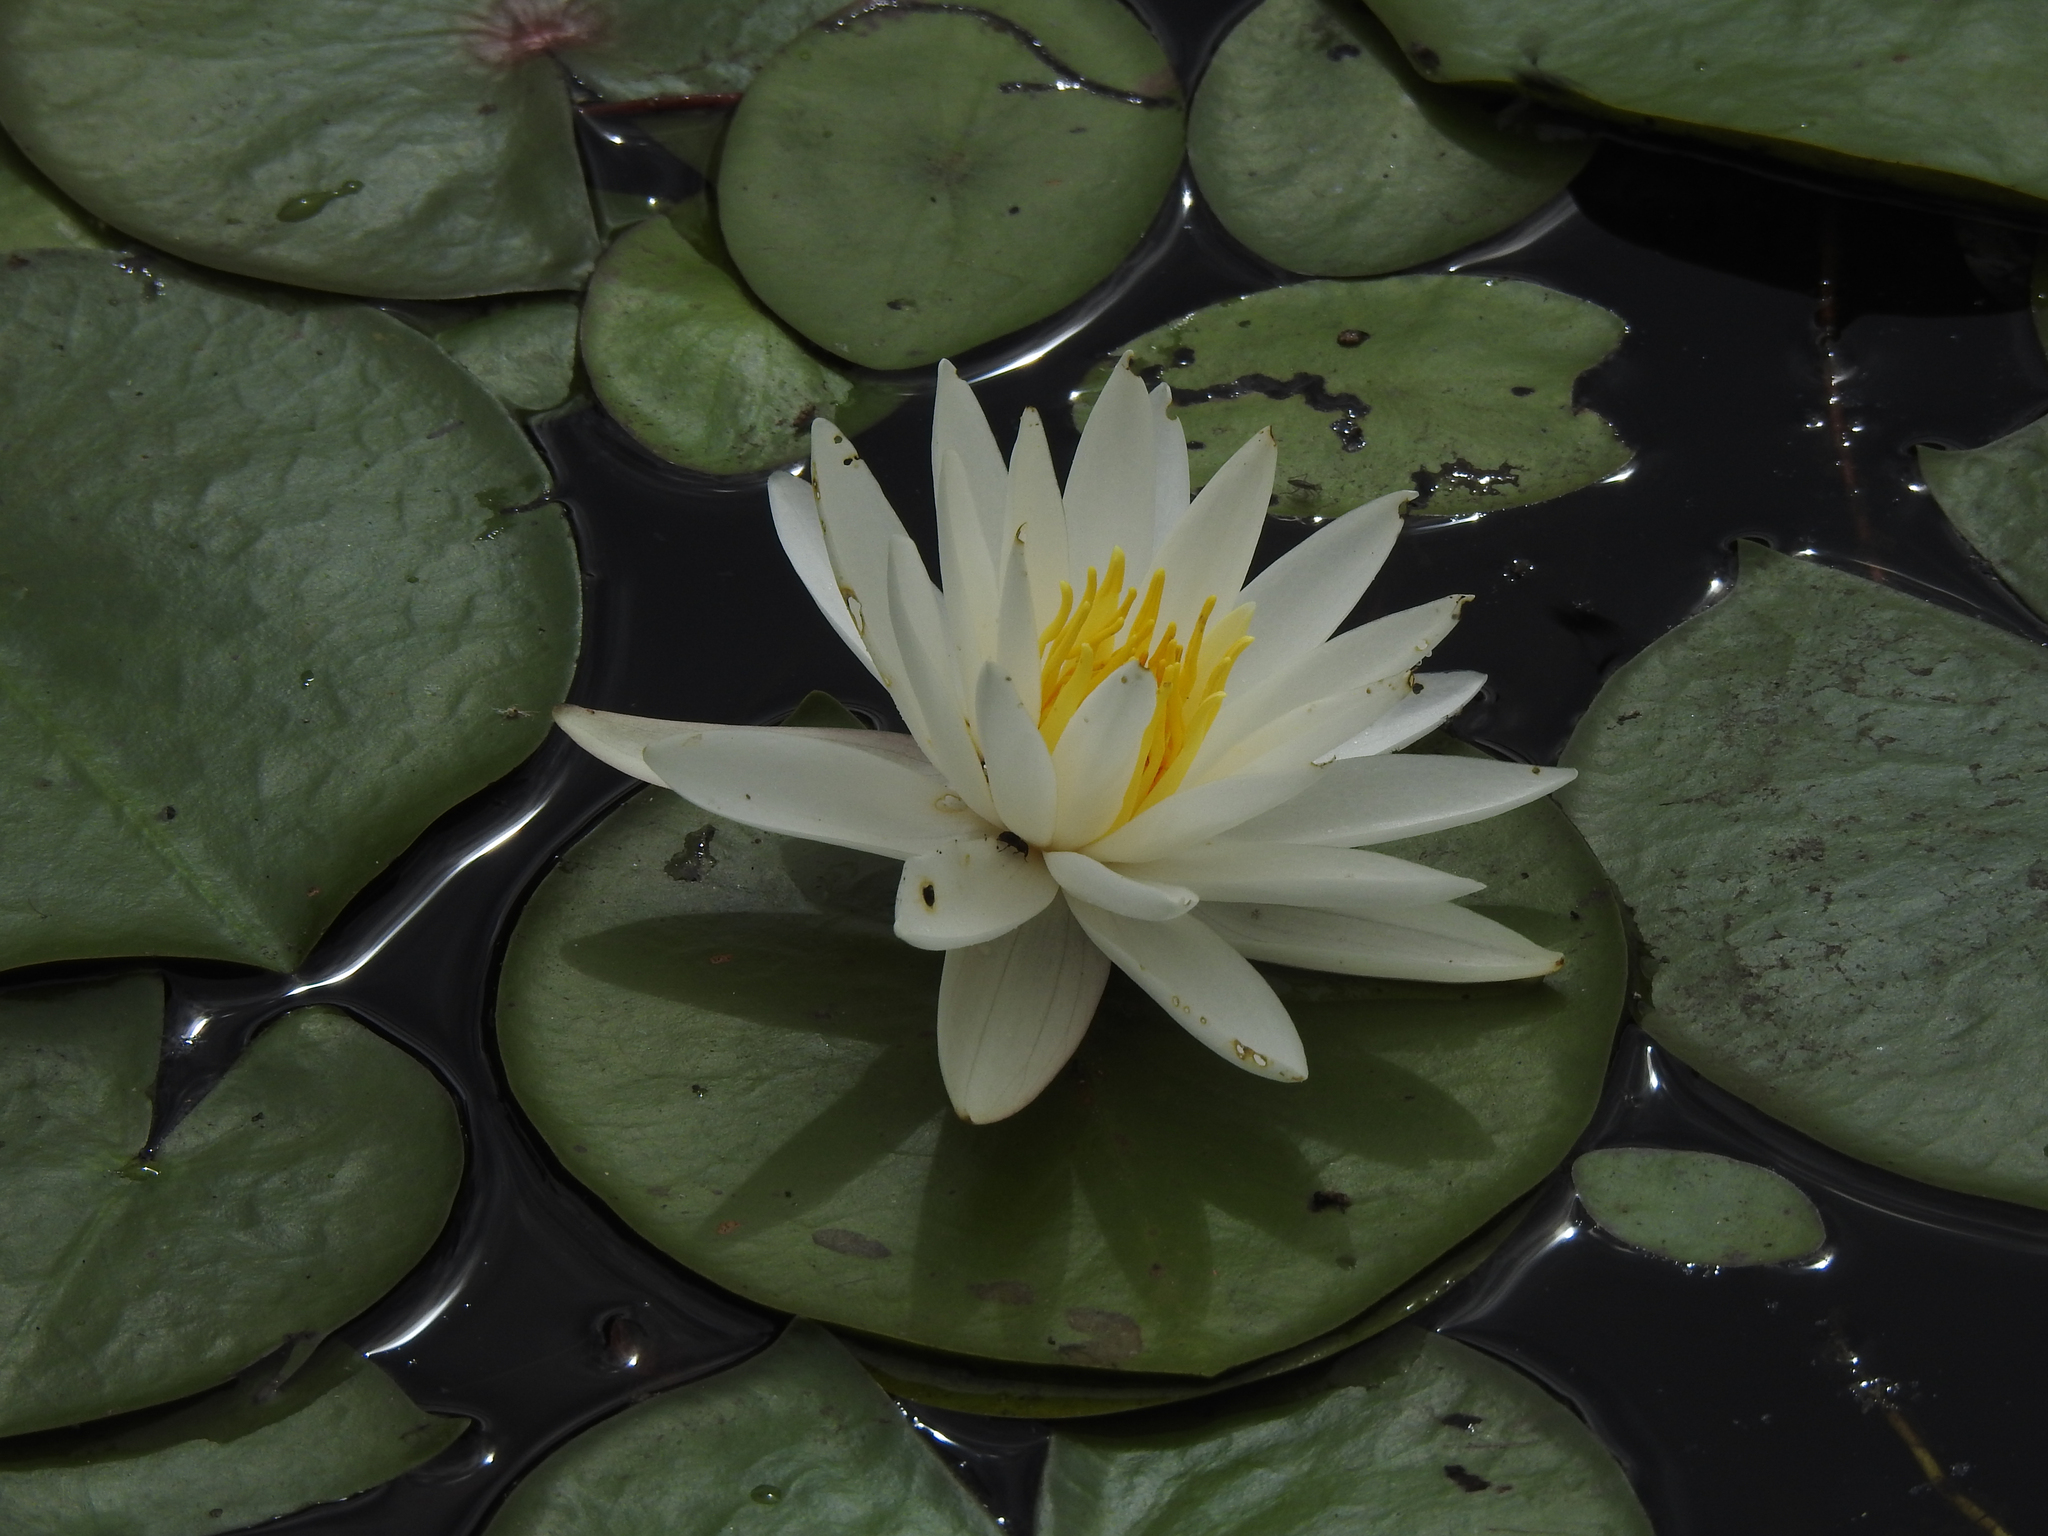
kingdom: Plantae
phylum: Tracheophyta
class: Magnoliopsida
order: Nymphaeales
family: Nymphaeaceae
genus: Nymphaea
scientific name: Nymphaea odorata
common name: Fragrant water-lily
